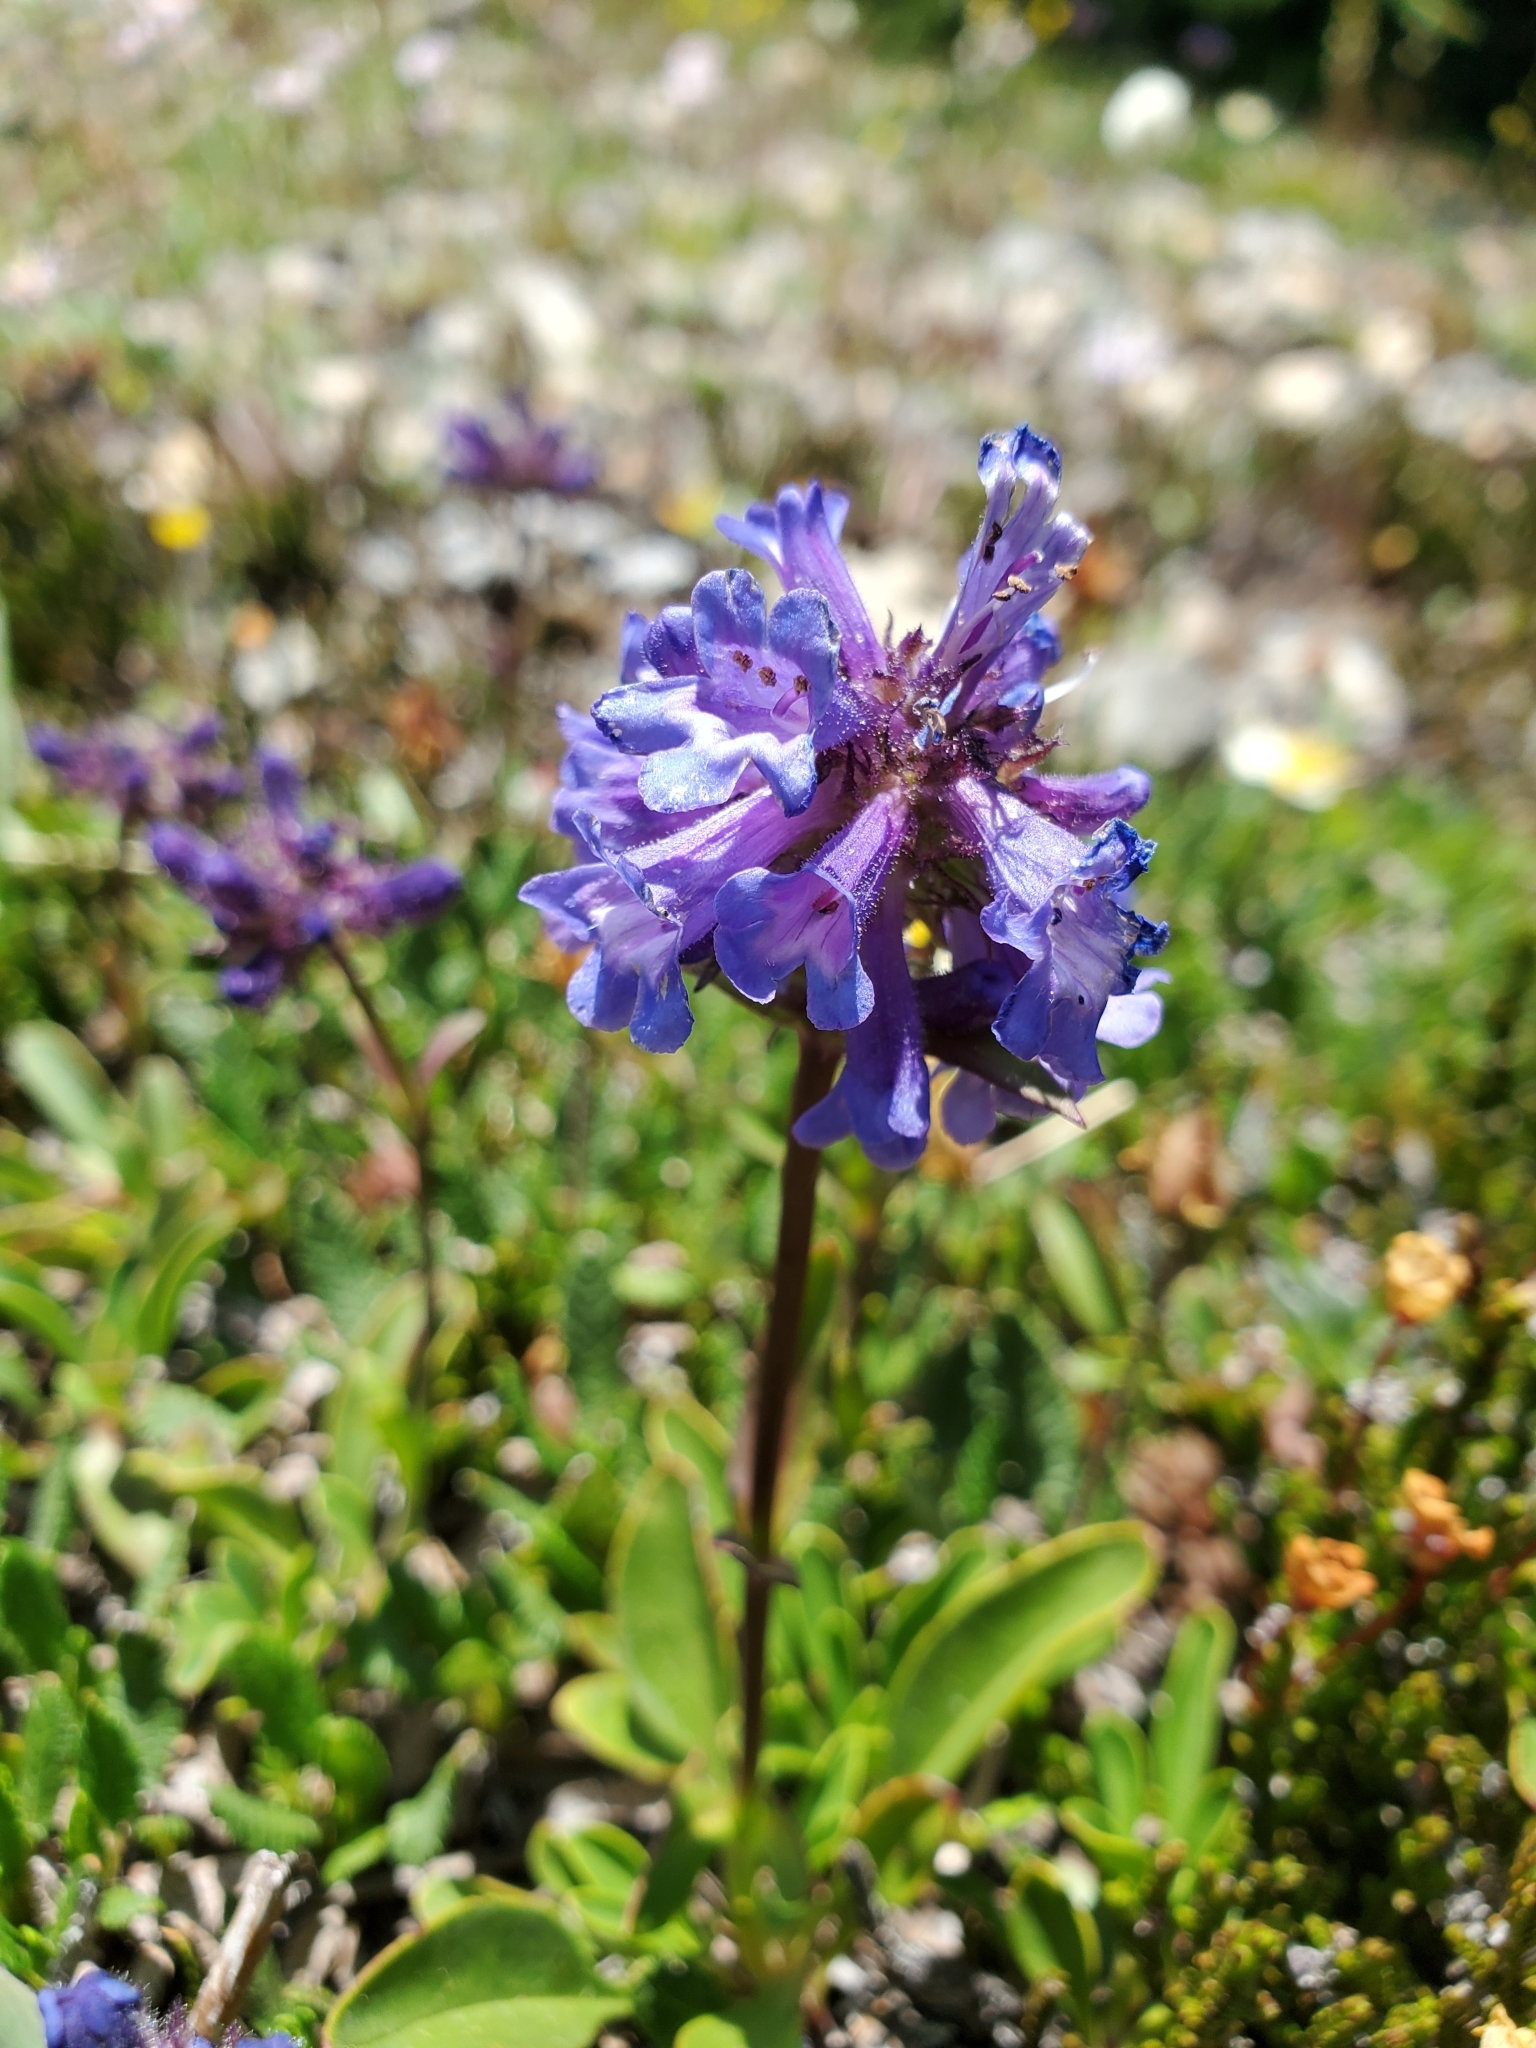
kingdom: Plantae
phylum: Tracheophyta
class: Magnoliopsida
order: Lamiales
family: Plantaginaceae
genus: Penstemon
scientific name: Penstemon procerus
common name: Small-flower penstemon
